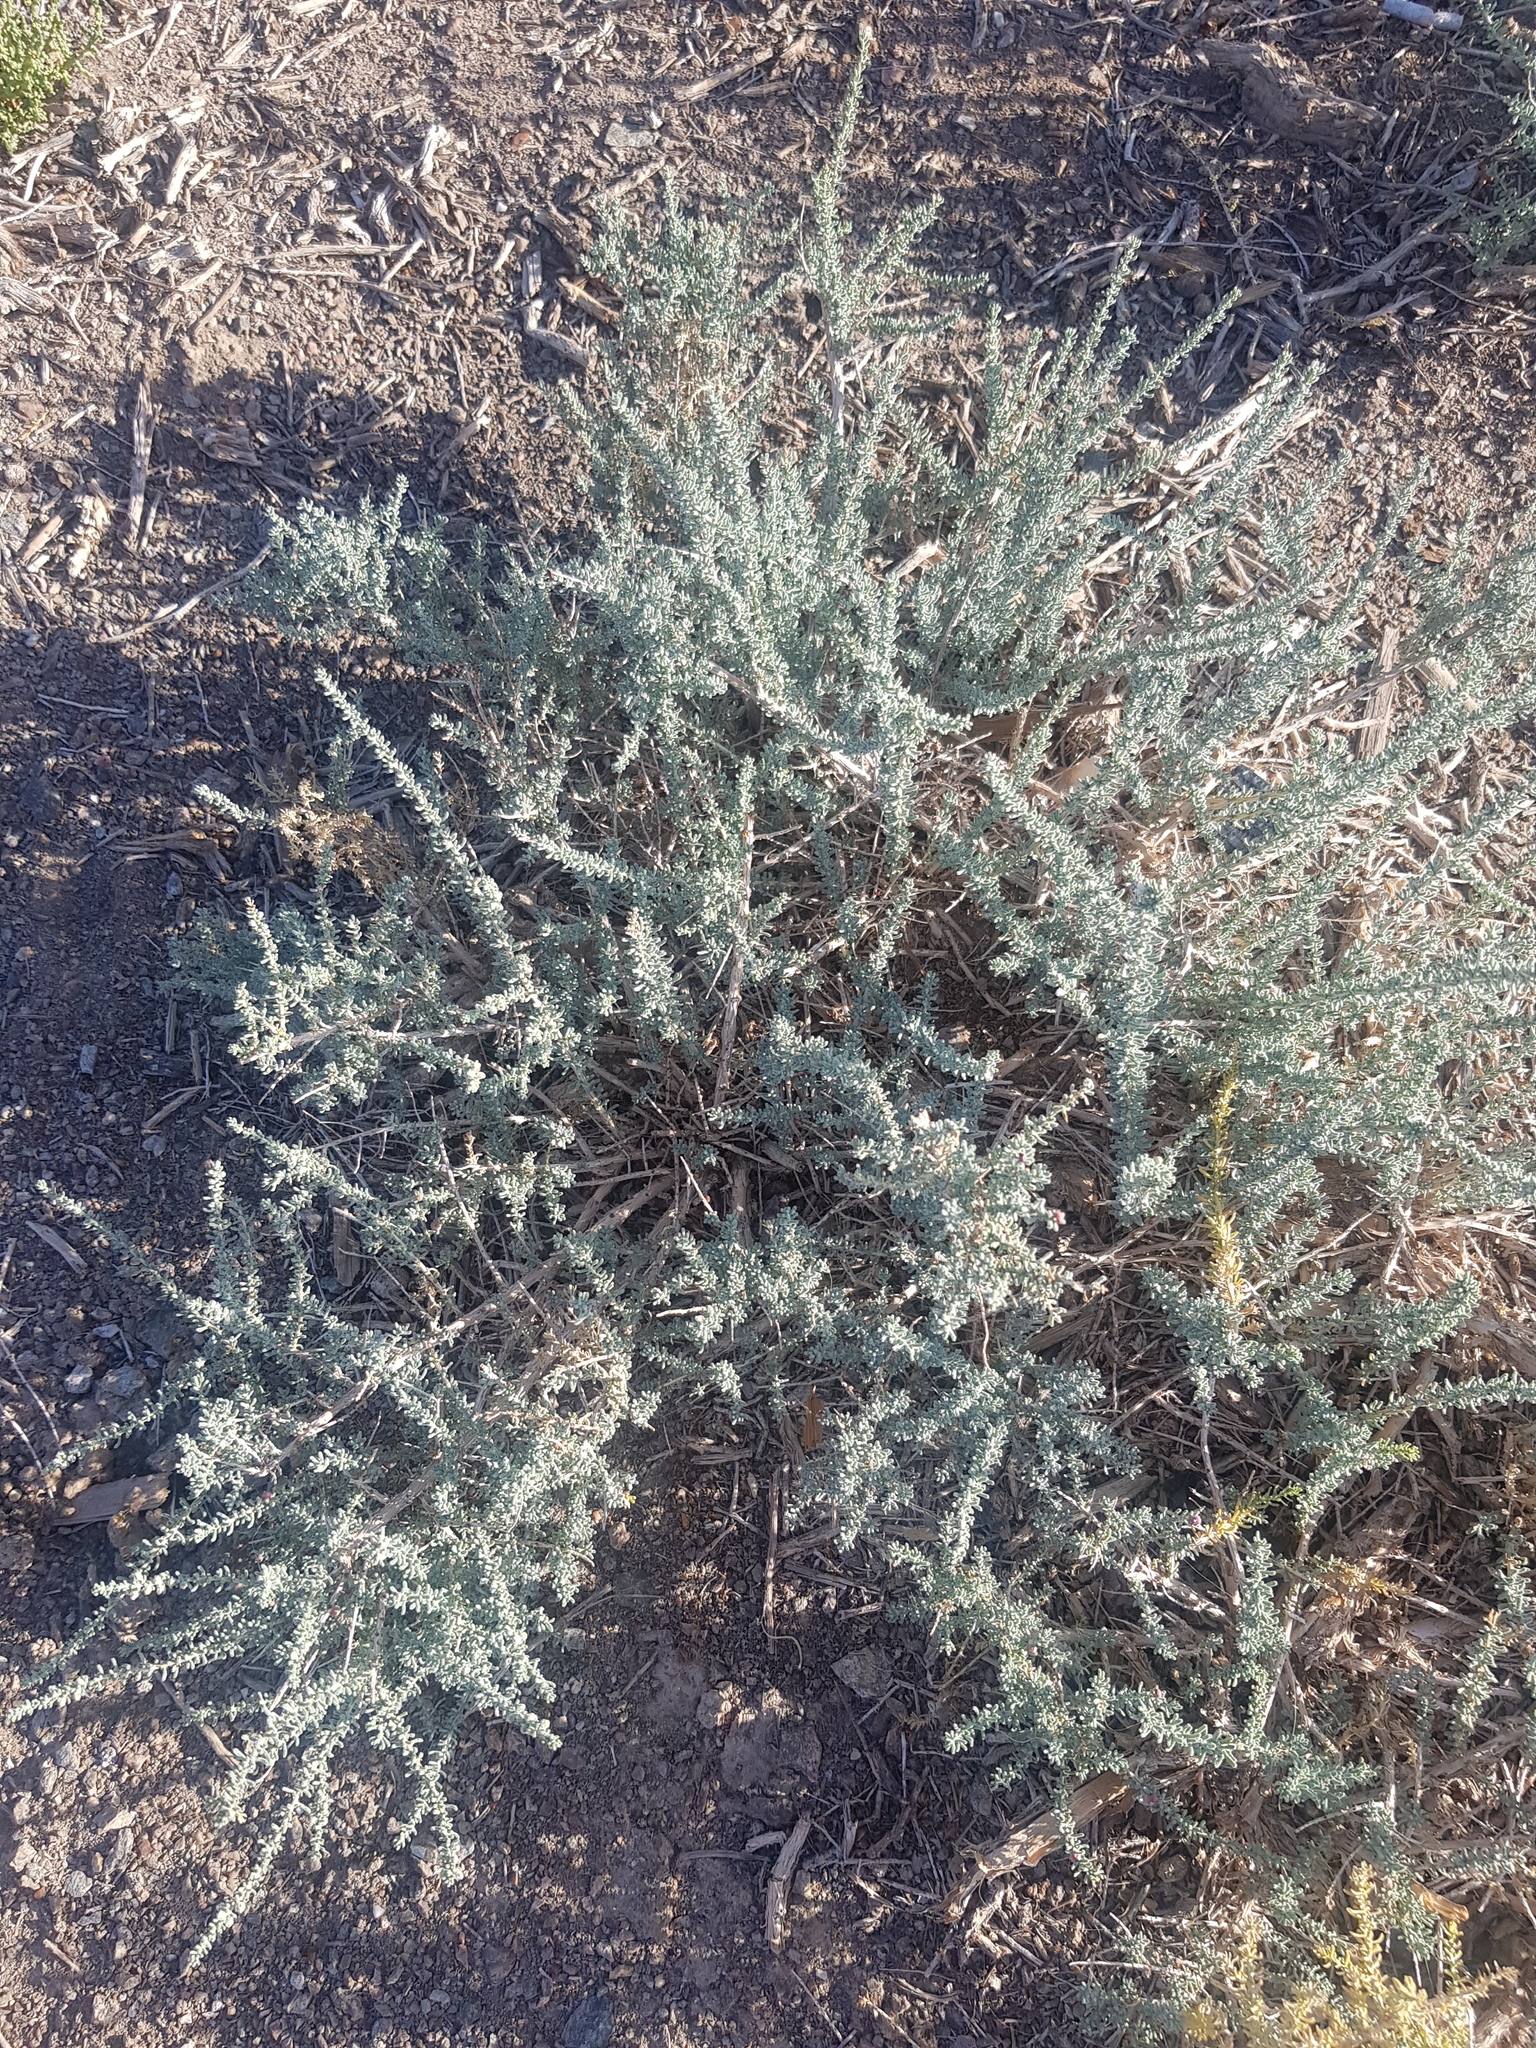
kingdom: Plantae
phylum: Tracheophyta
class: Magnoliopsida
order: Caryophyllales
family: Tamaricaceae
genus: Reaumuria
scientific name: Reaumuria songarica
